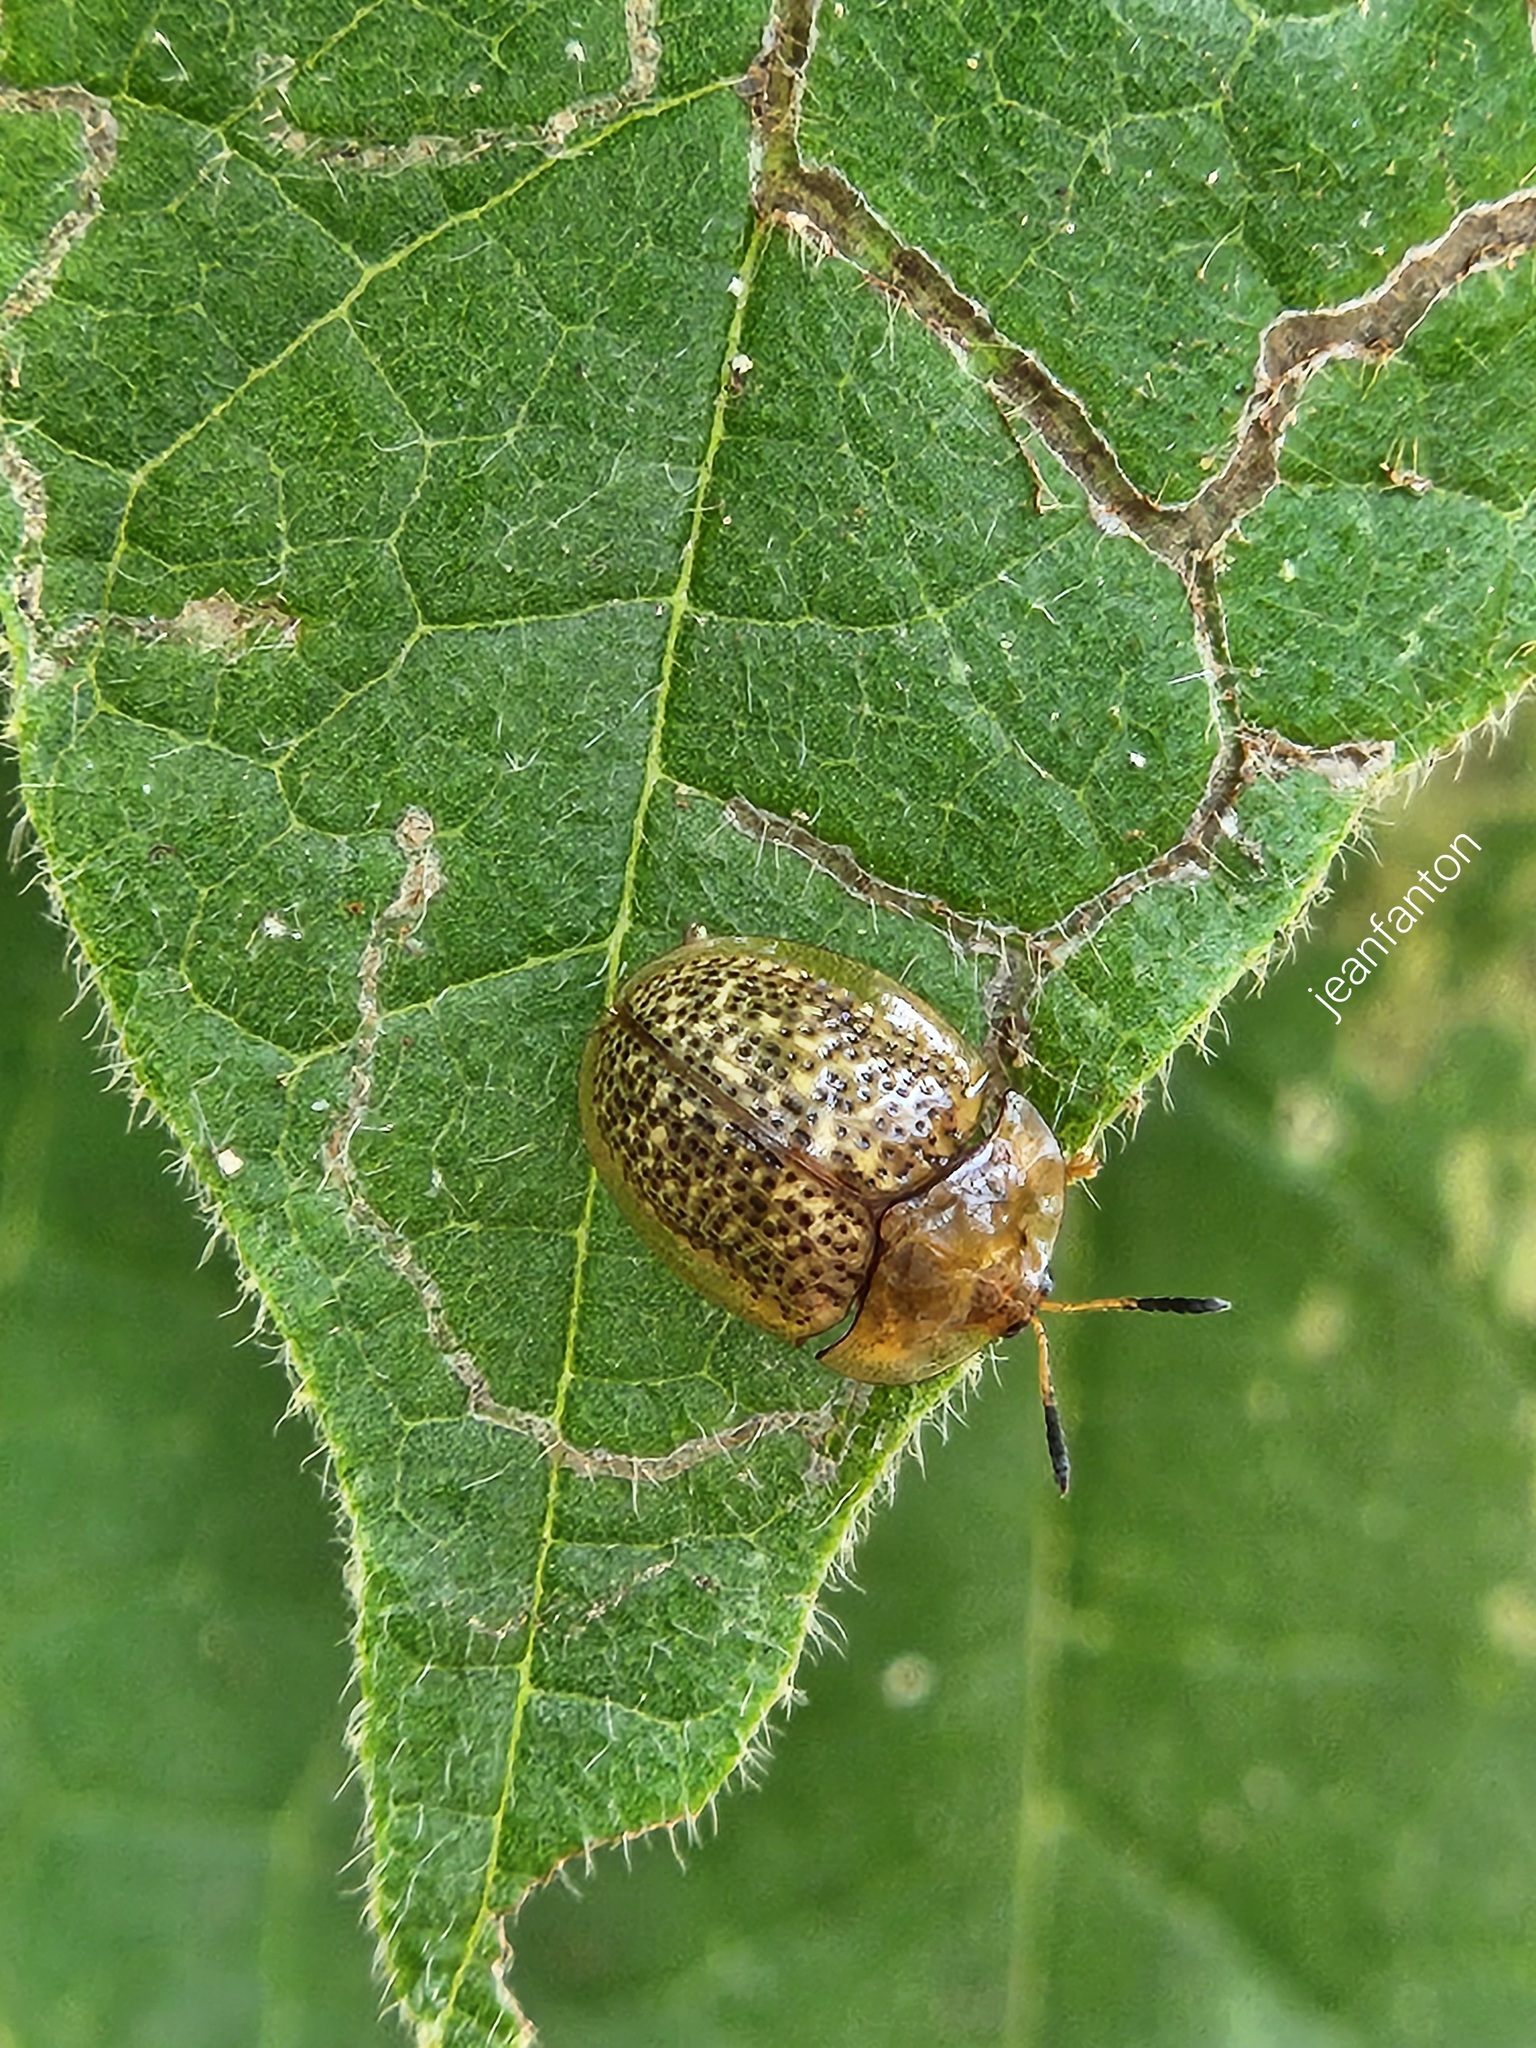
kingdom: Animalia
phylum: Arthropoda
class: Insecta
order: Coleoptera
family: Chrysomelidae
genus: Cistudinella
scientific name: Cistudinella obducta
